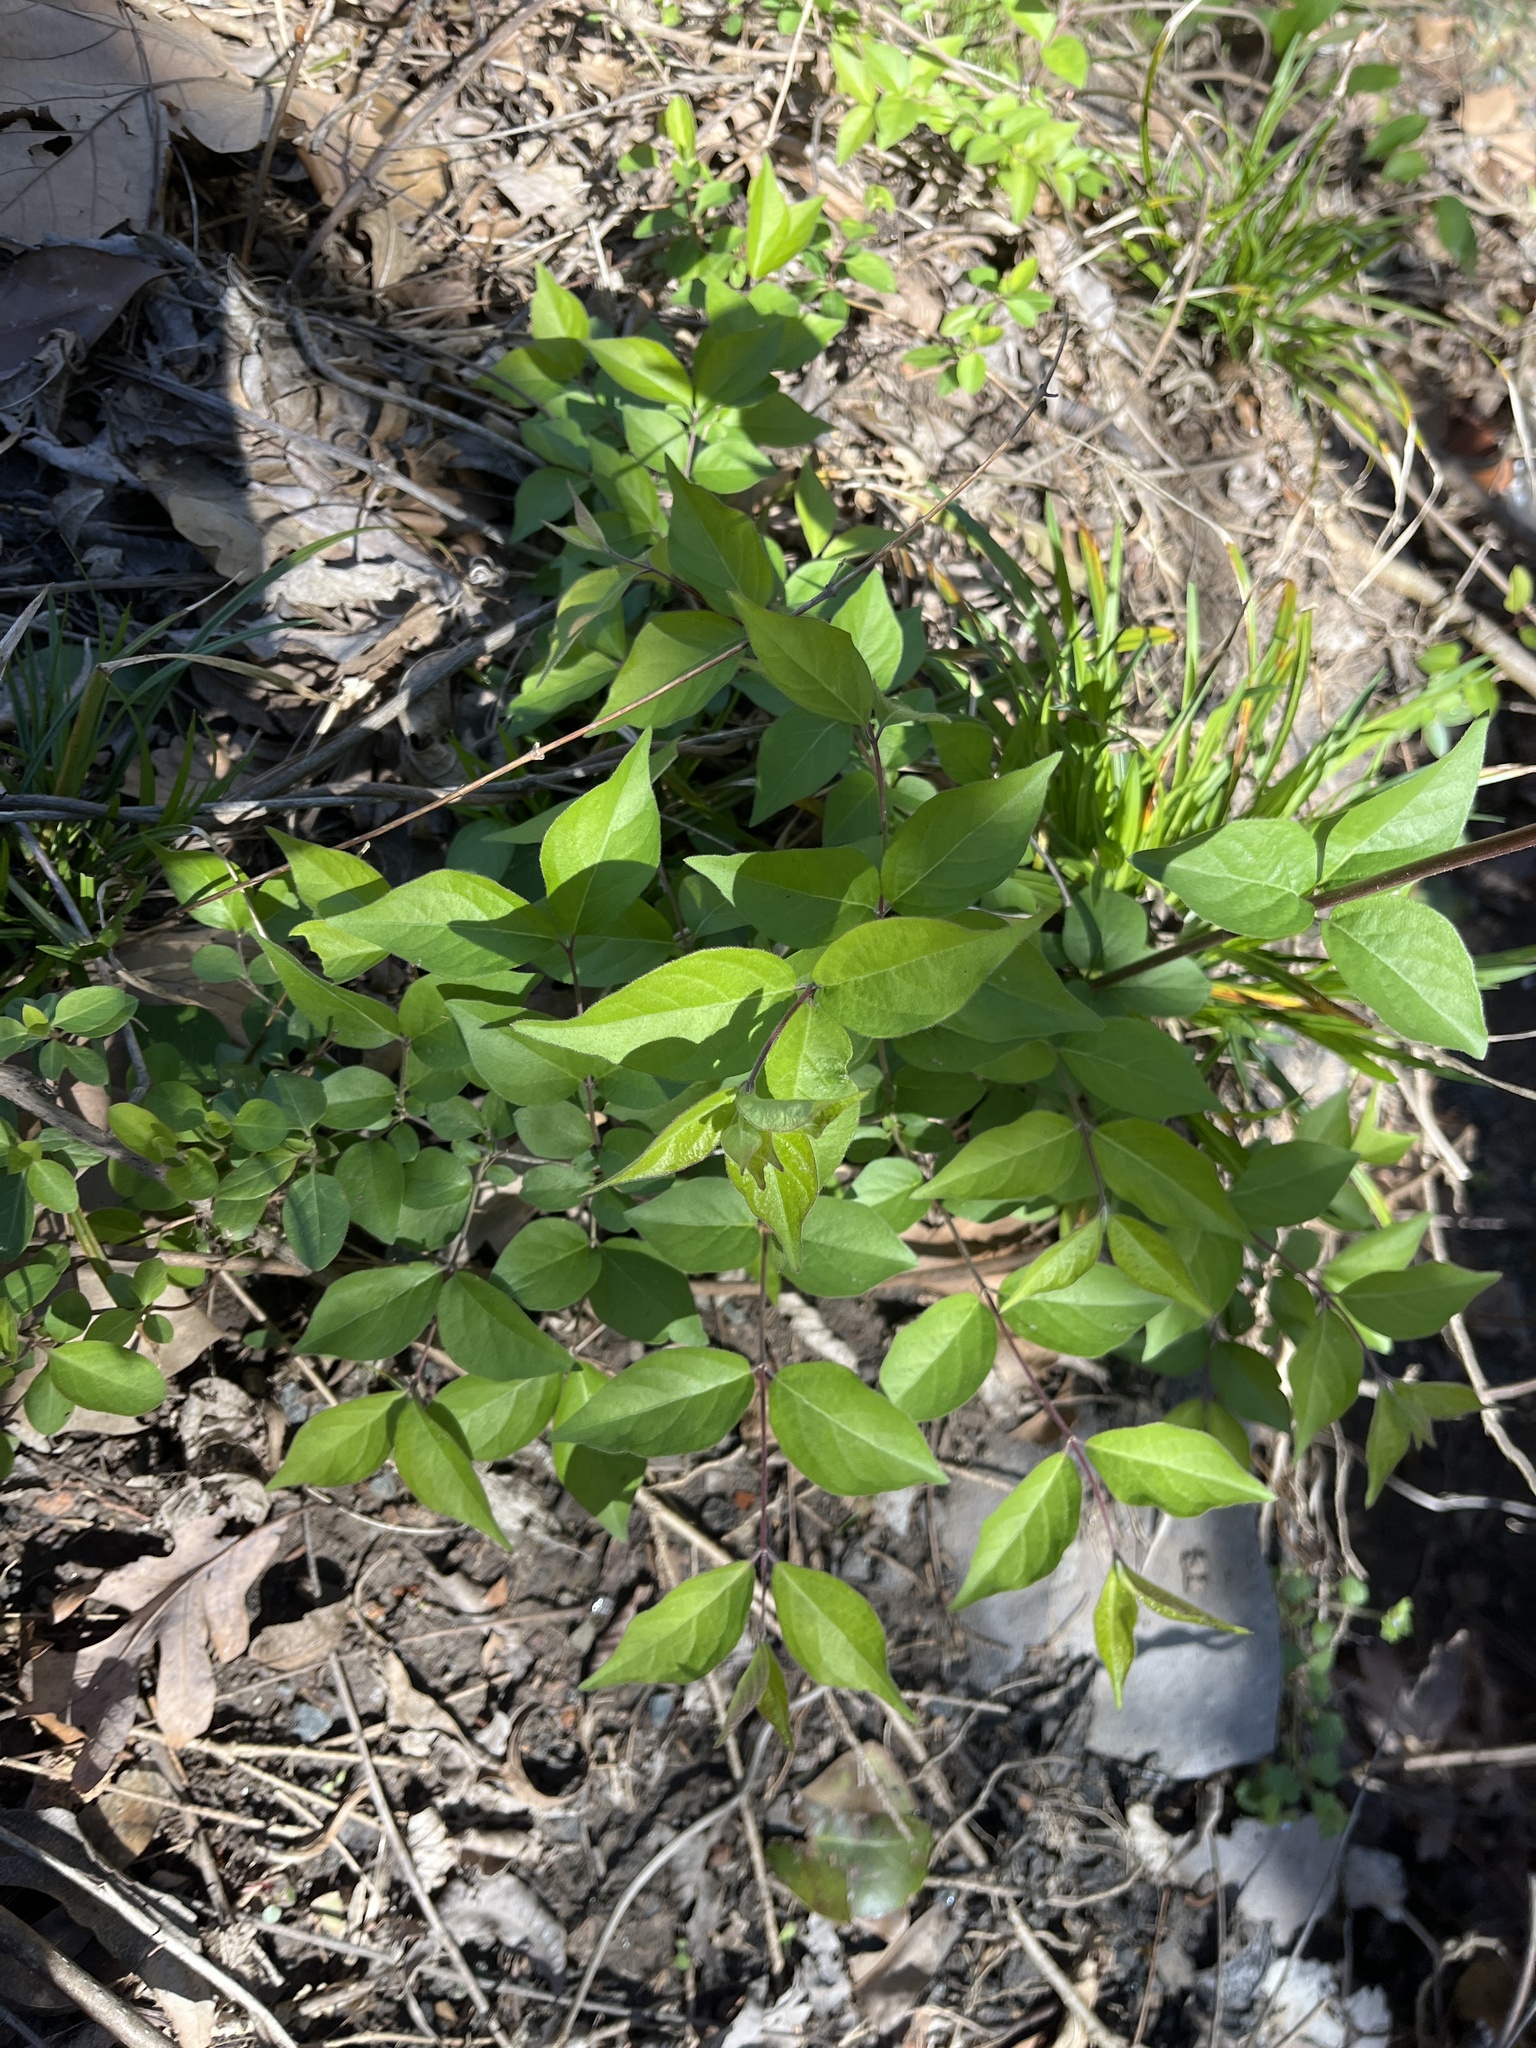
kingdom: Plantae
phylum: Tracheophyta
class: Magnoliopsida
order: Dipsacales
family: Caprifoliaceae
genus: Lonicera
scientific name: Lonicera maackii
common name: Amur honeysuckle
